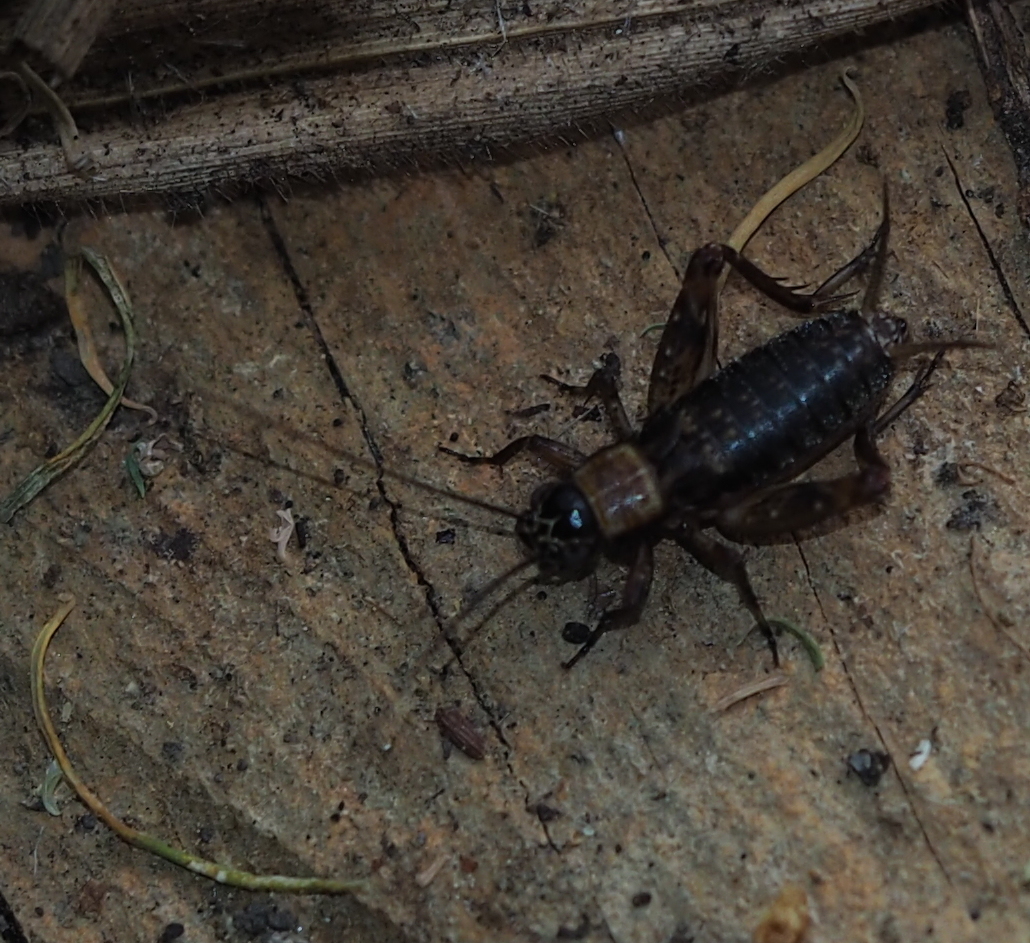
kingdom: Animalia
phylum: Arthropoda
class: Insecta
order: Orthoptera
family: Trigonidiidae
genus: Nemobius
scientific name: Nemobius sylvestris
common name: Wood-cricket
